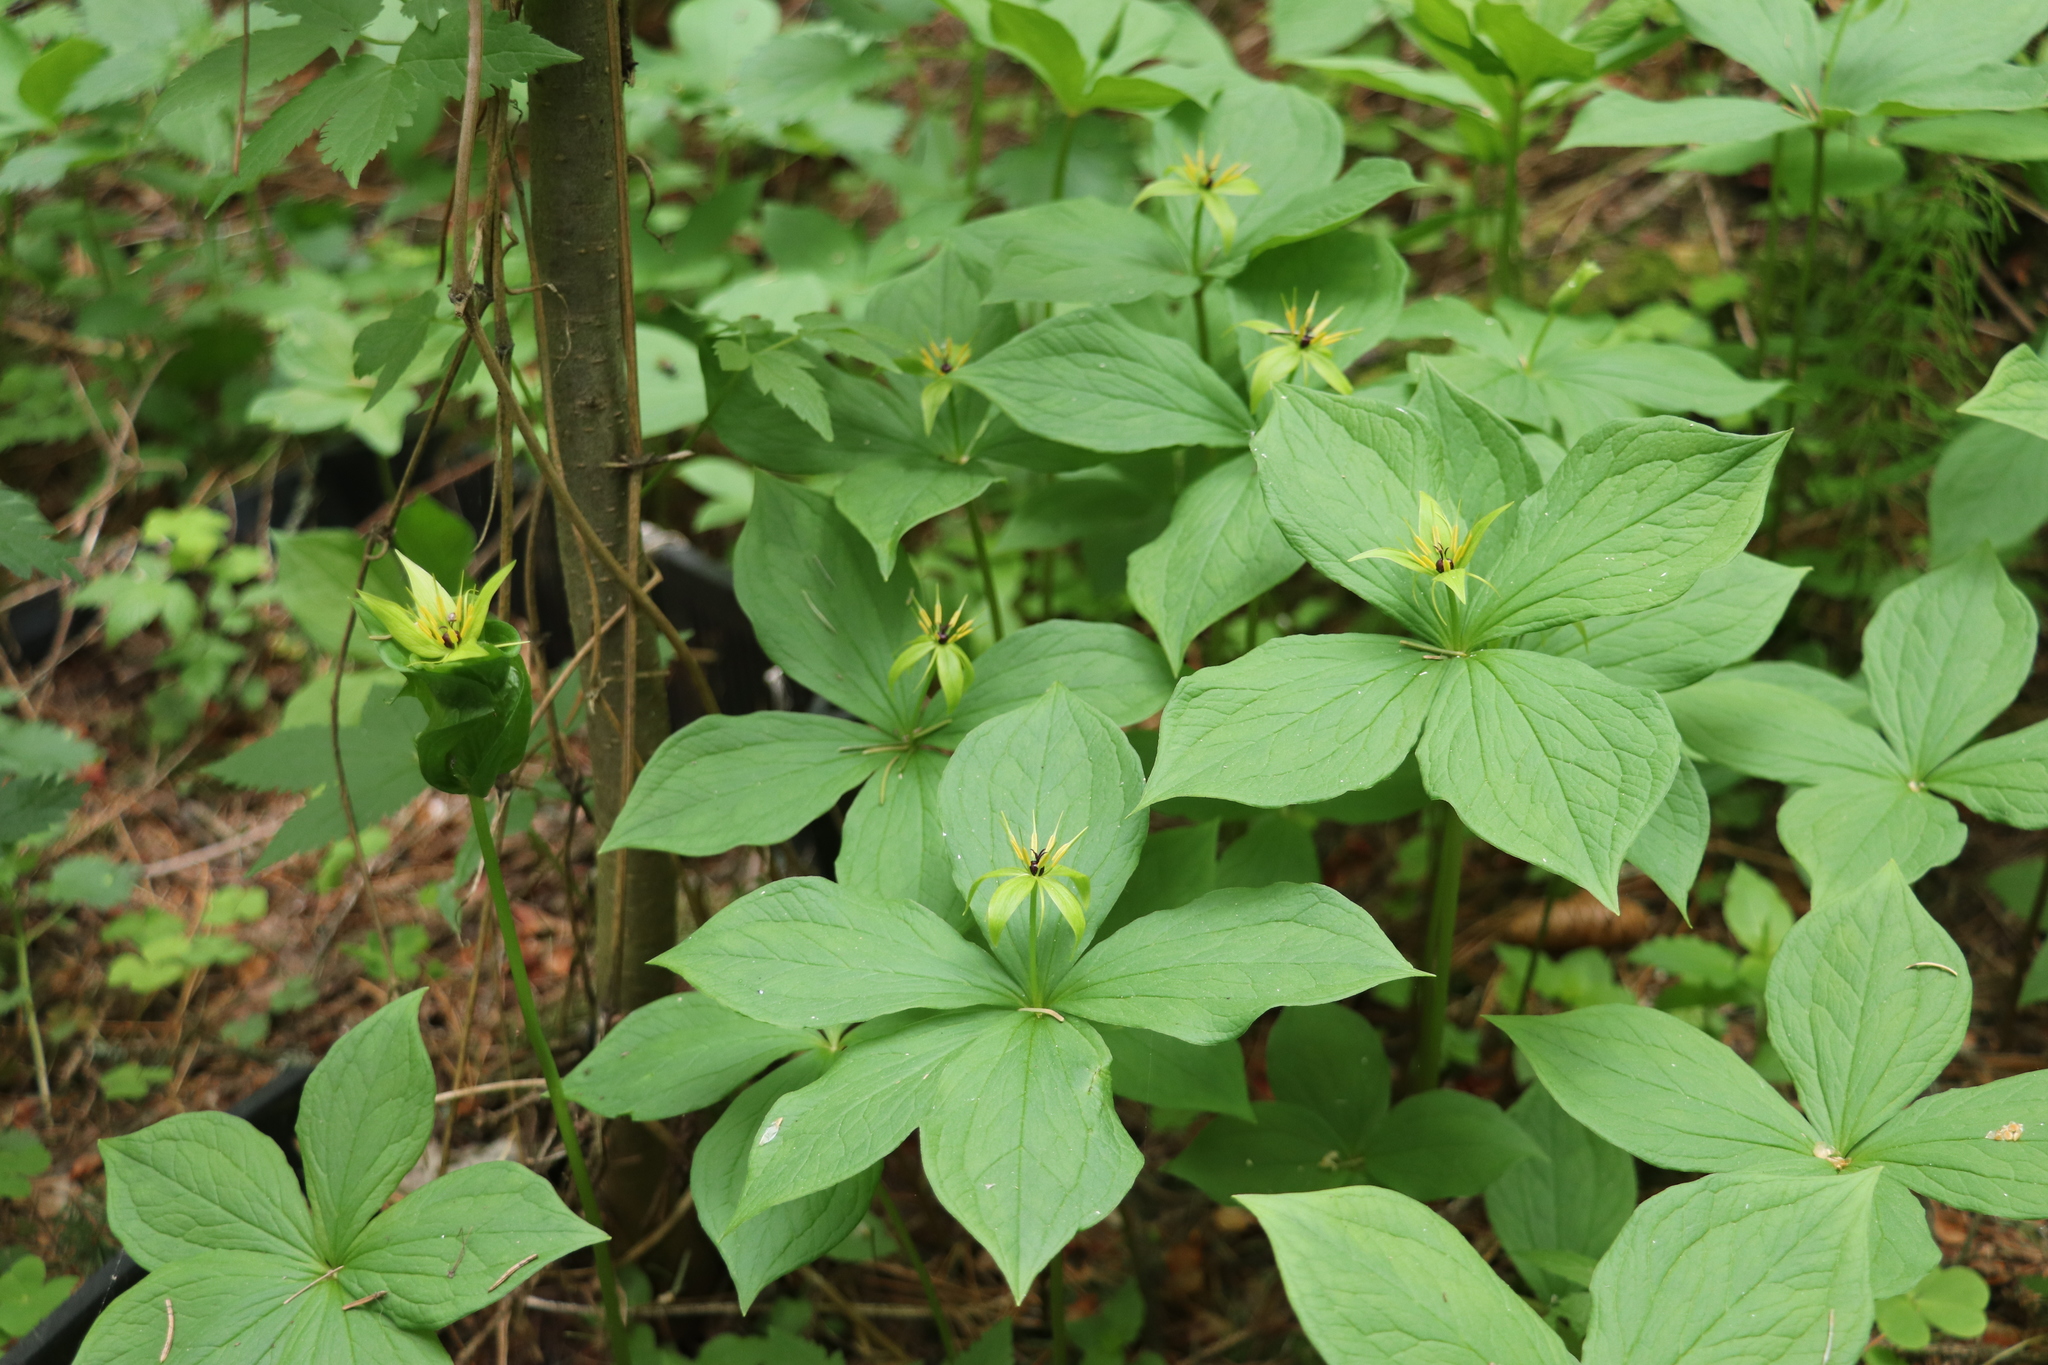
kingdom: Plantae
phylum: Tracheophyta
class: Liliopsida
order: Liliales
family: Melanthiaceae
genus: Paris
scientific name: Paris quadrifolia
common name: Herb-paris
